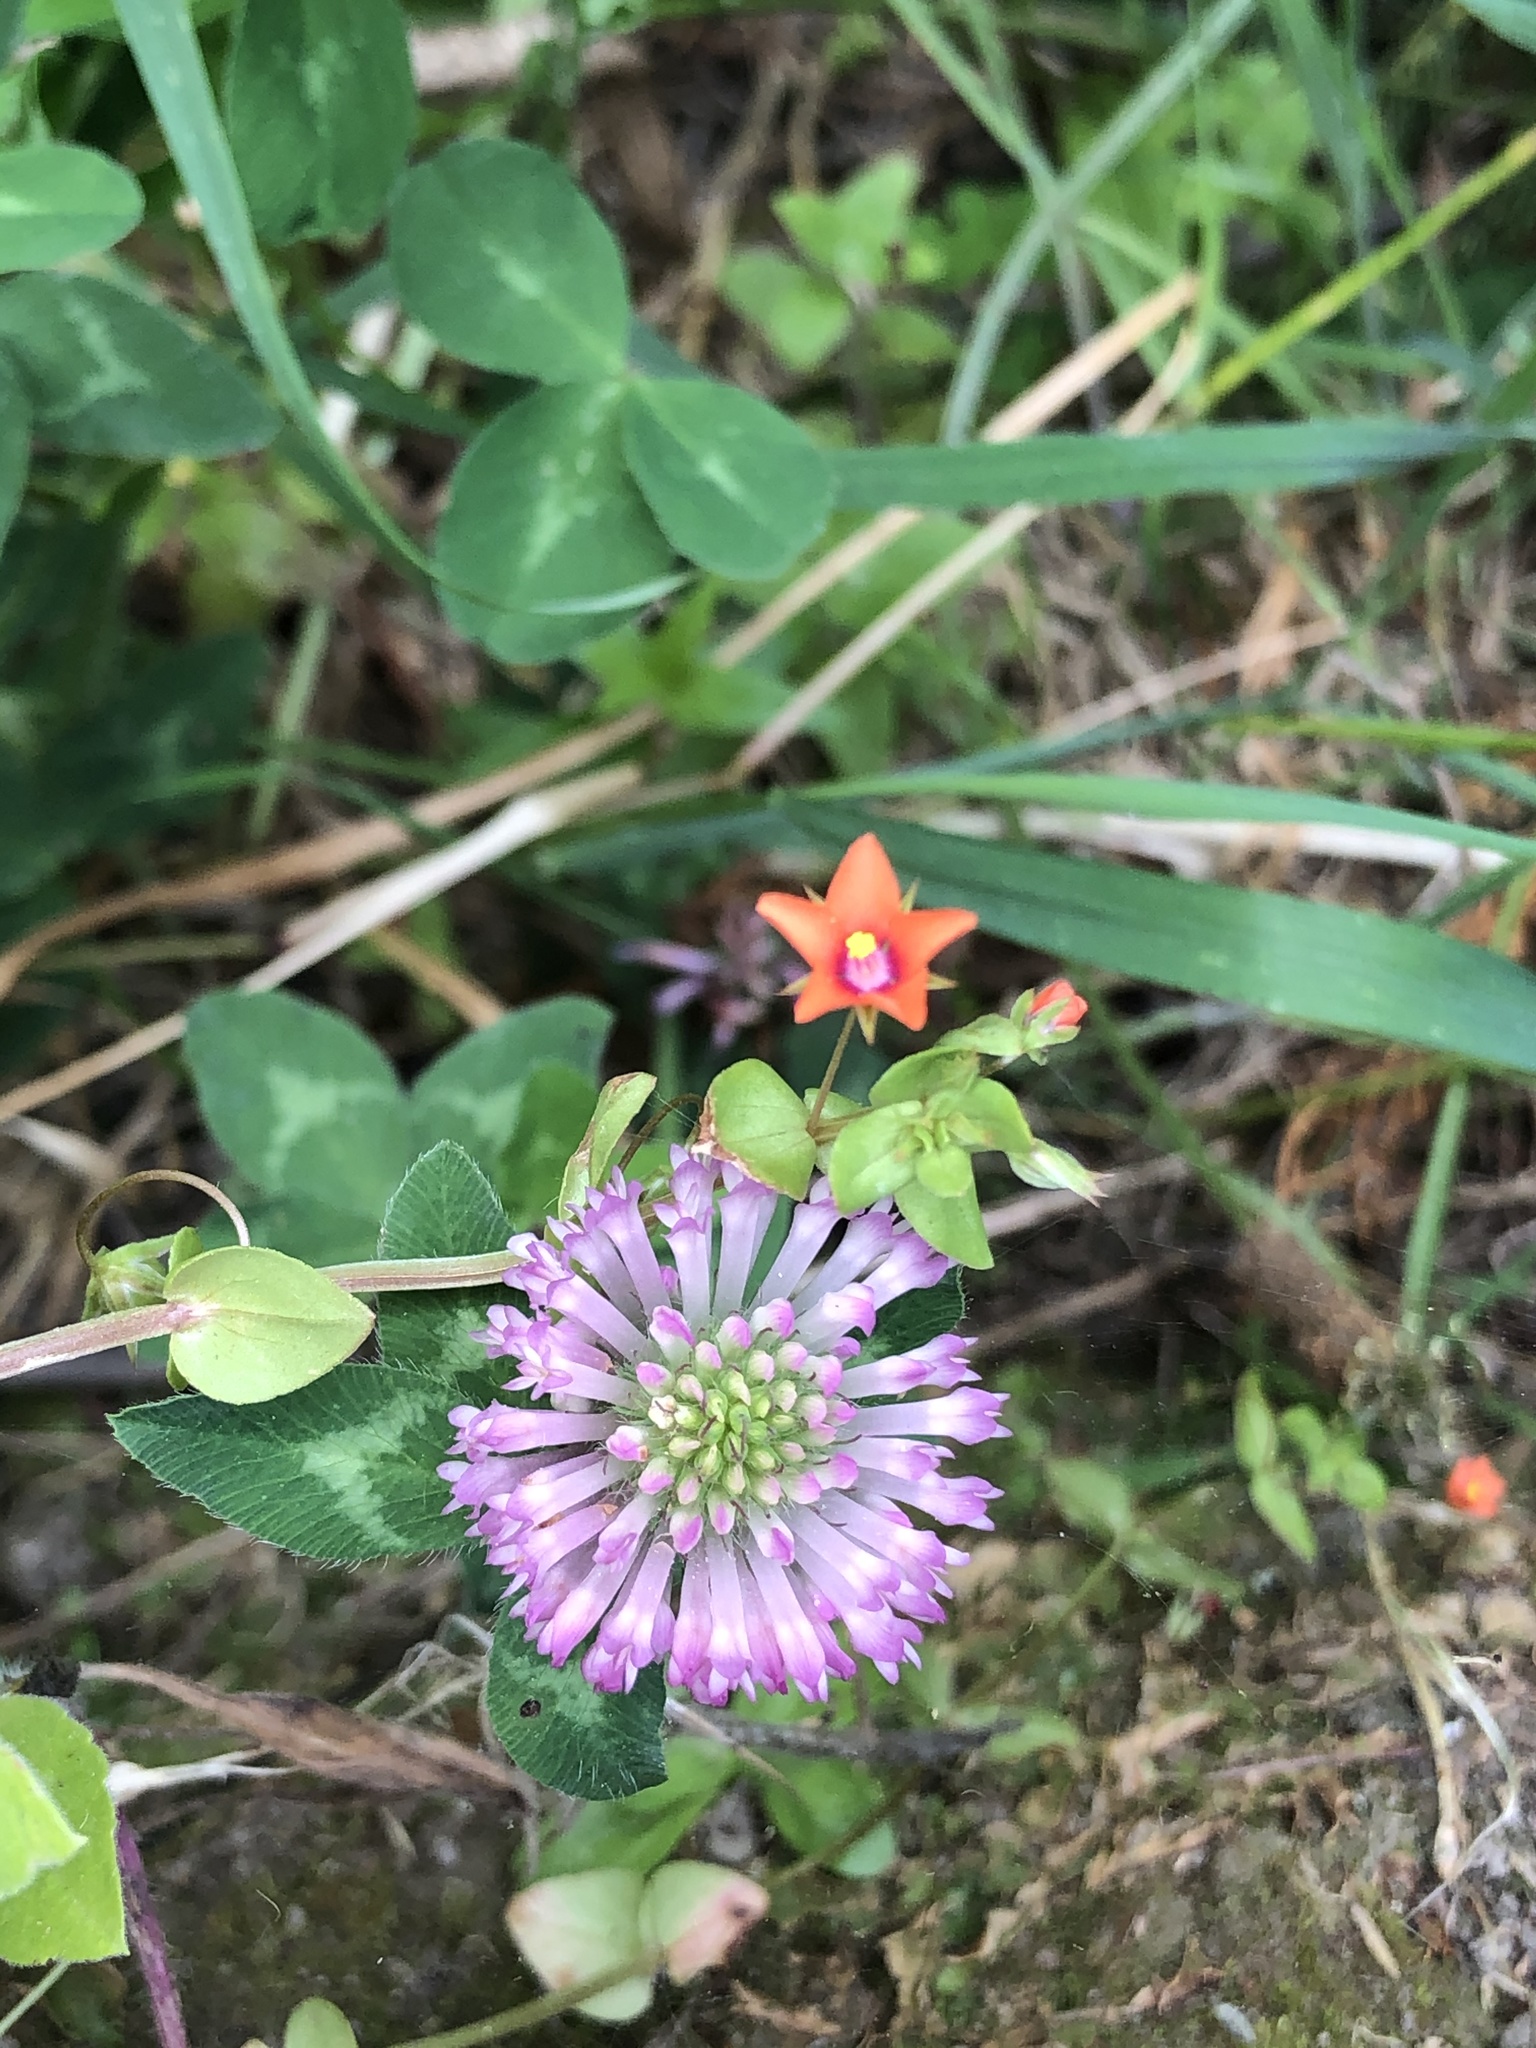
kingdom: Plantae
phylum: Tracheophyta
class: Magnoliopsida
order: Fabales
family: Fabaceae
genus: Trifolium
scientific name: Trifolium pratense
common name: Red clover
